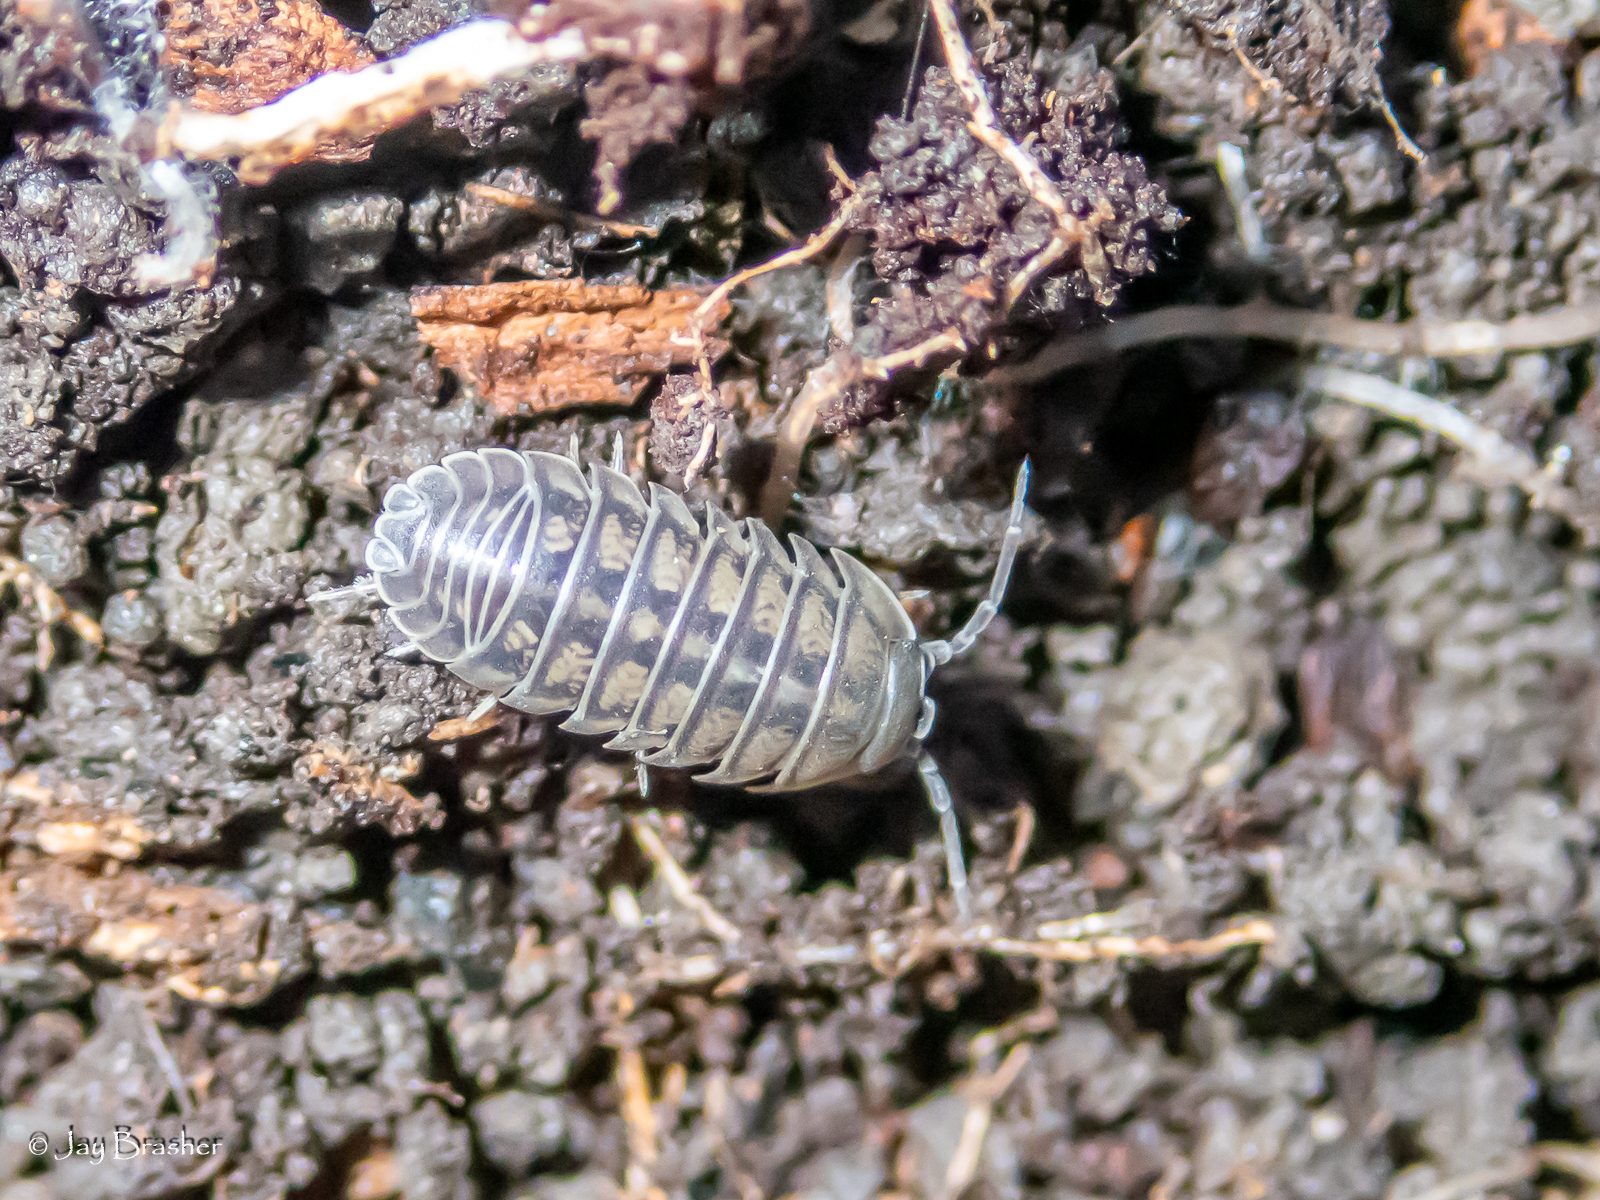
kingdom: Animalia
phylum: Arthropoda
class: Malacostraca
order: Isopoda
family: Armadillidiidae
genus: Armadillidium
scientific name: Armadillidium nasatum
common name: Isopod
